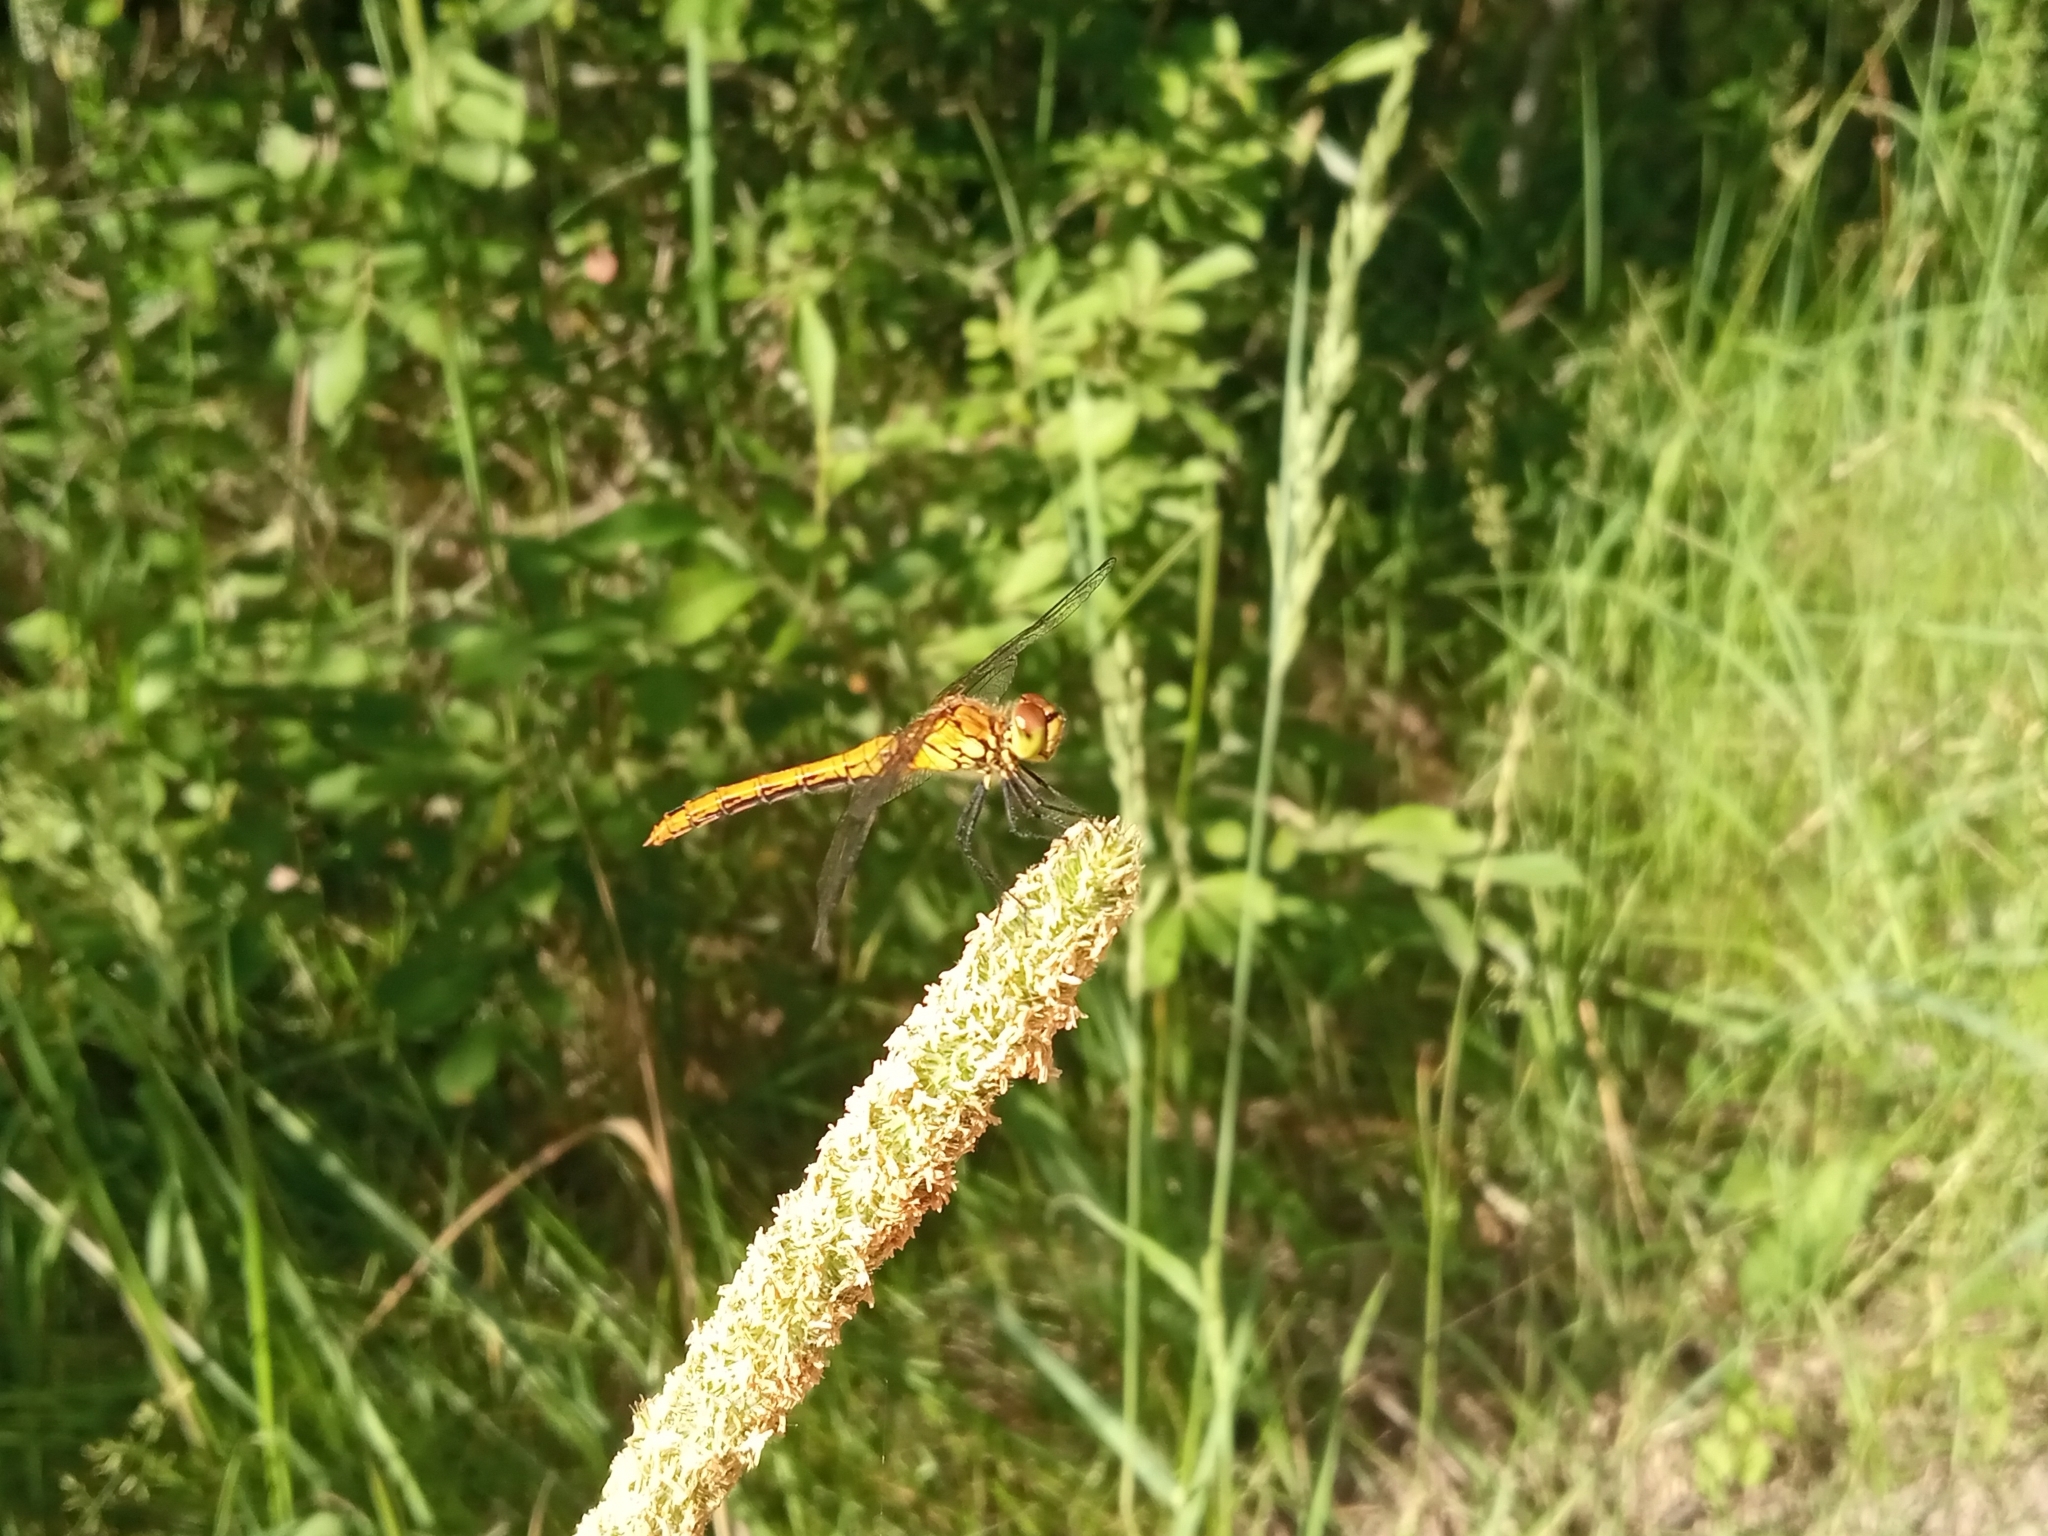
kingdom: Animalia
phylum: Arthropoda
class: Insecta
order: Odonata
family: Libellulidae
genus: Sympetrum
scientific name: Sympetrum sanguineum
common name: Ruddy darter
